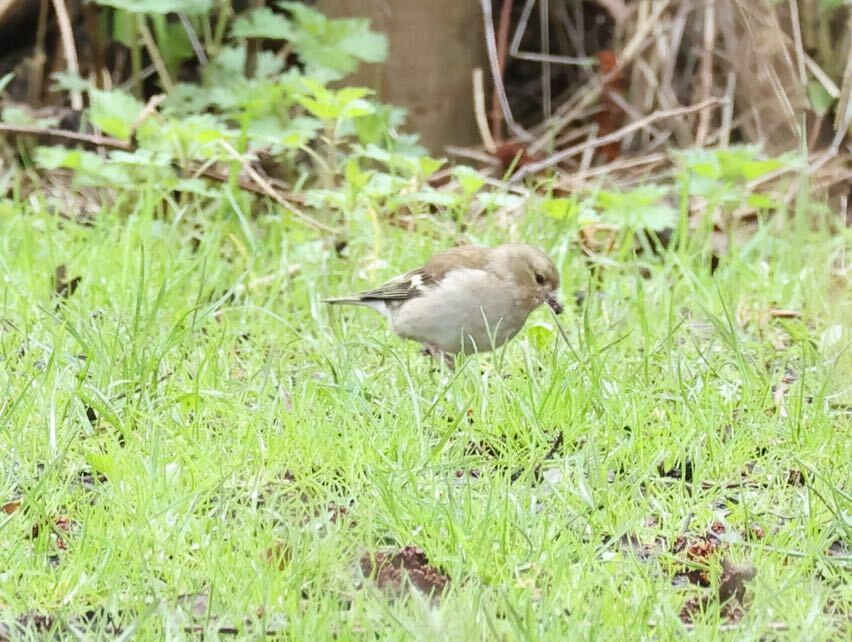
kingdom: Animalia
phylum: Chordata
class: Aves
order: Passeriformes
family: Fringillidae
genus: Fringilla
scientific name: Fringilla coelebs
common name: Common chaffinch
